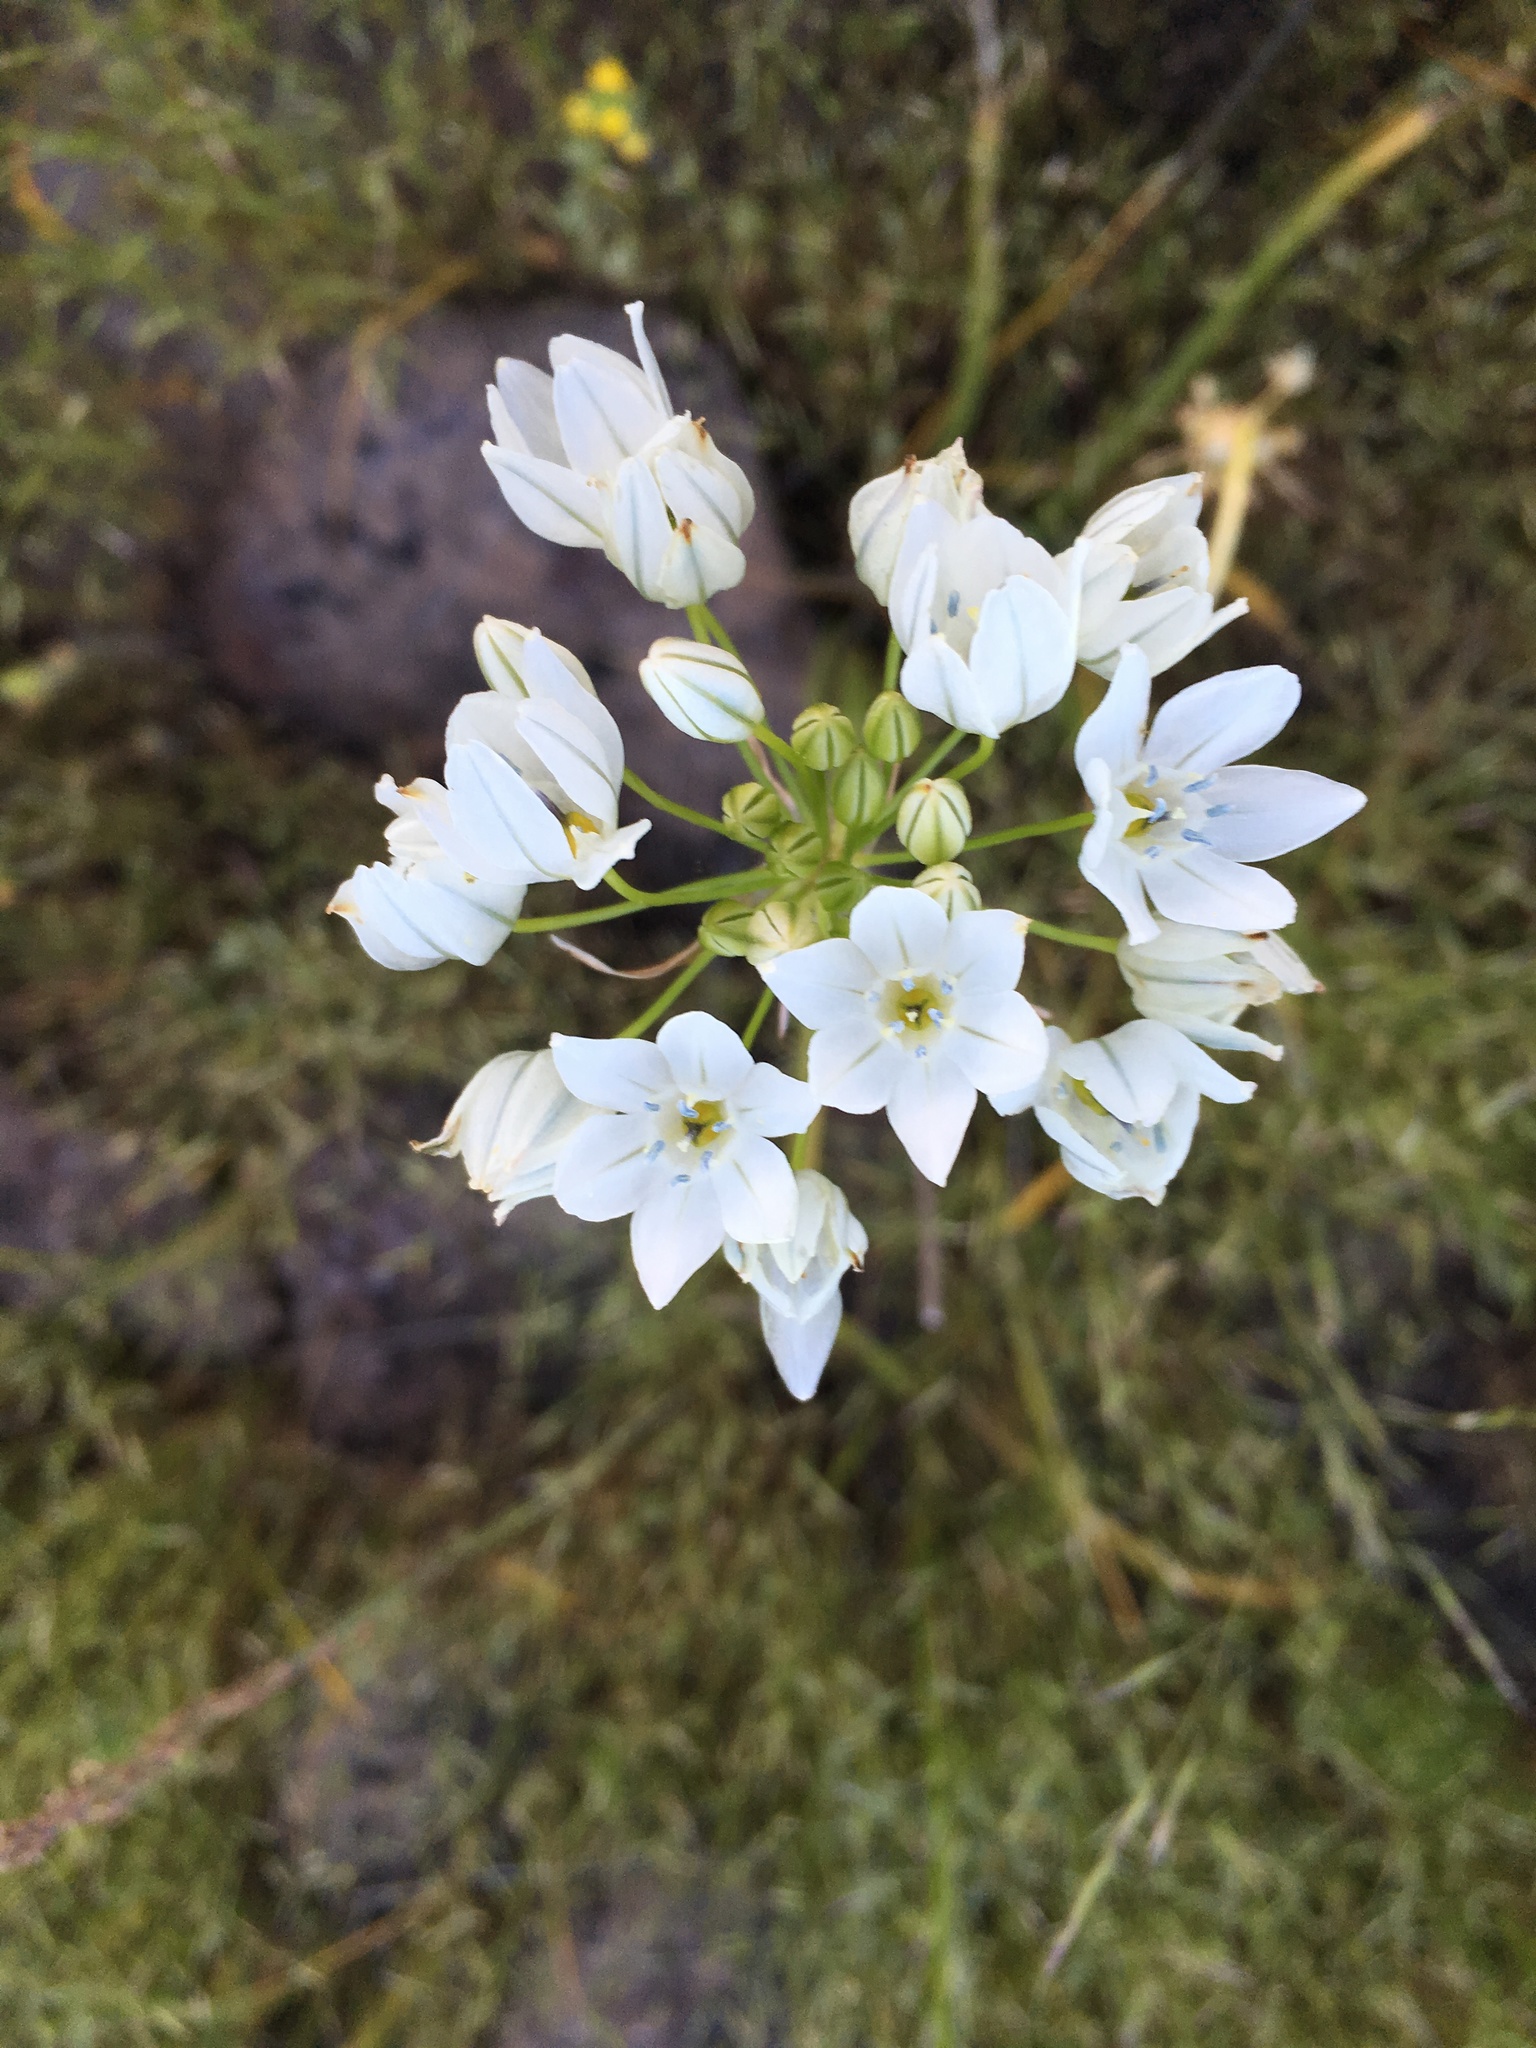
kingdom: Plantae
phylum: Tracheophyta
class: Liliopsida
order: Asparagales
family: Asparagaceae
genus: Triteleia
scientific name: Triteleia hyacinthina
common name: White brodiaea
